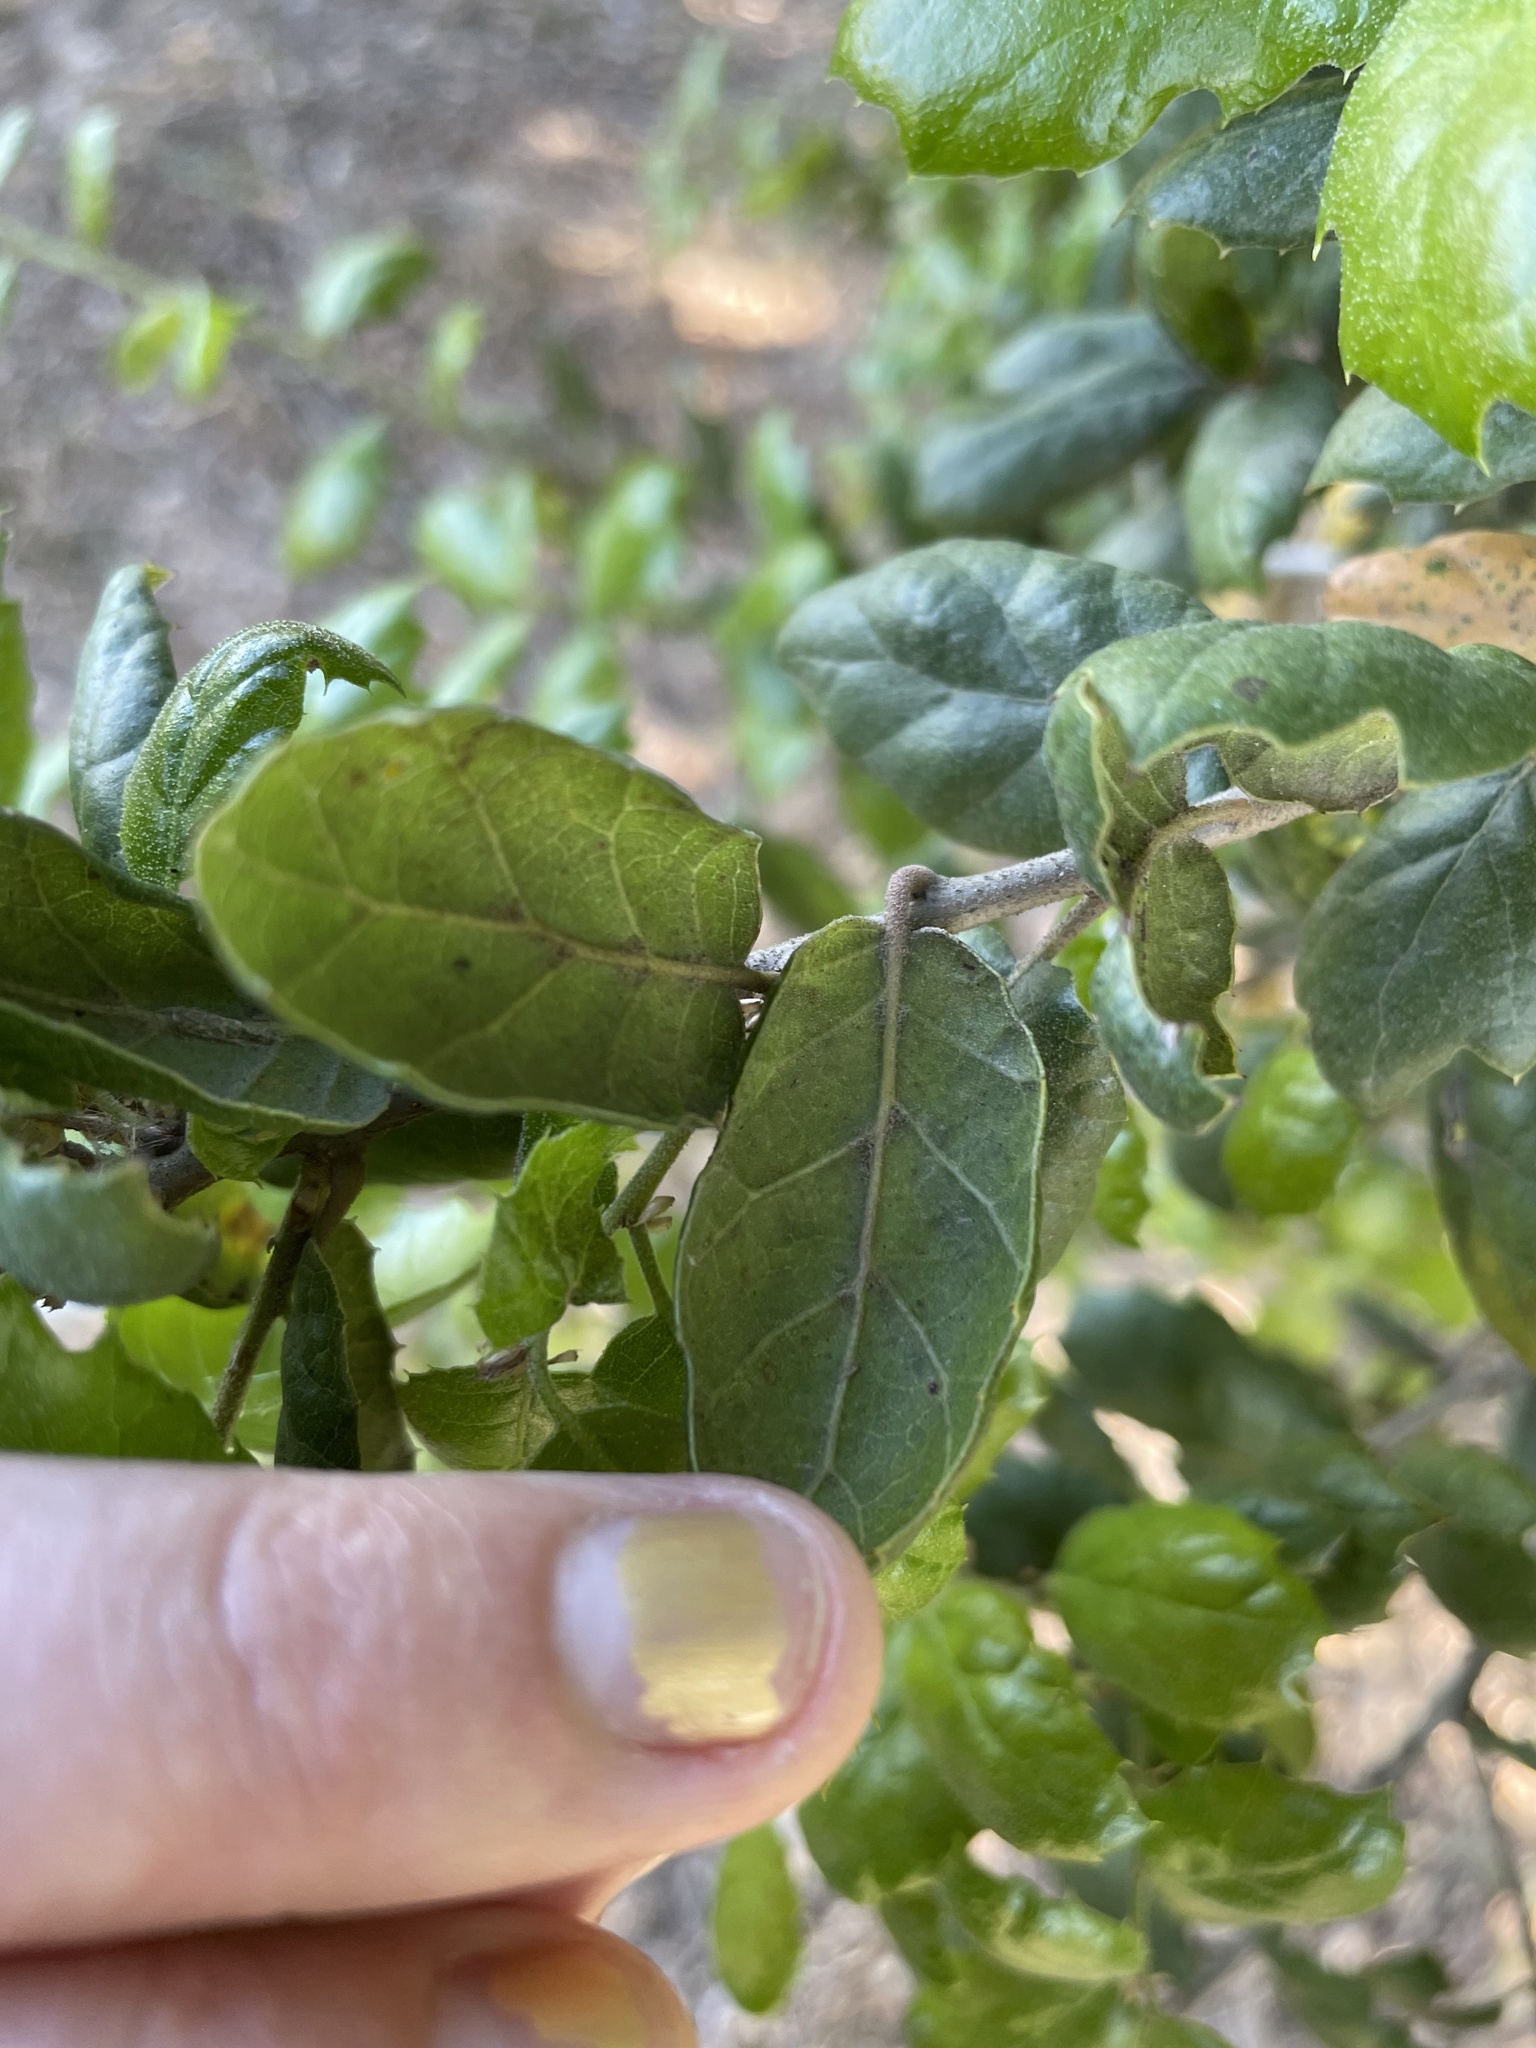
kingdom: Plantae
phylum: Tracheophyta
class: Magnoliopsida
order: Fagales
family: Fagaceae
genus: Quercus
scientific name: Quercus agrifolia
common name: California live oak
